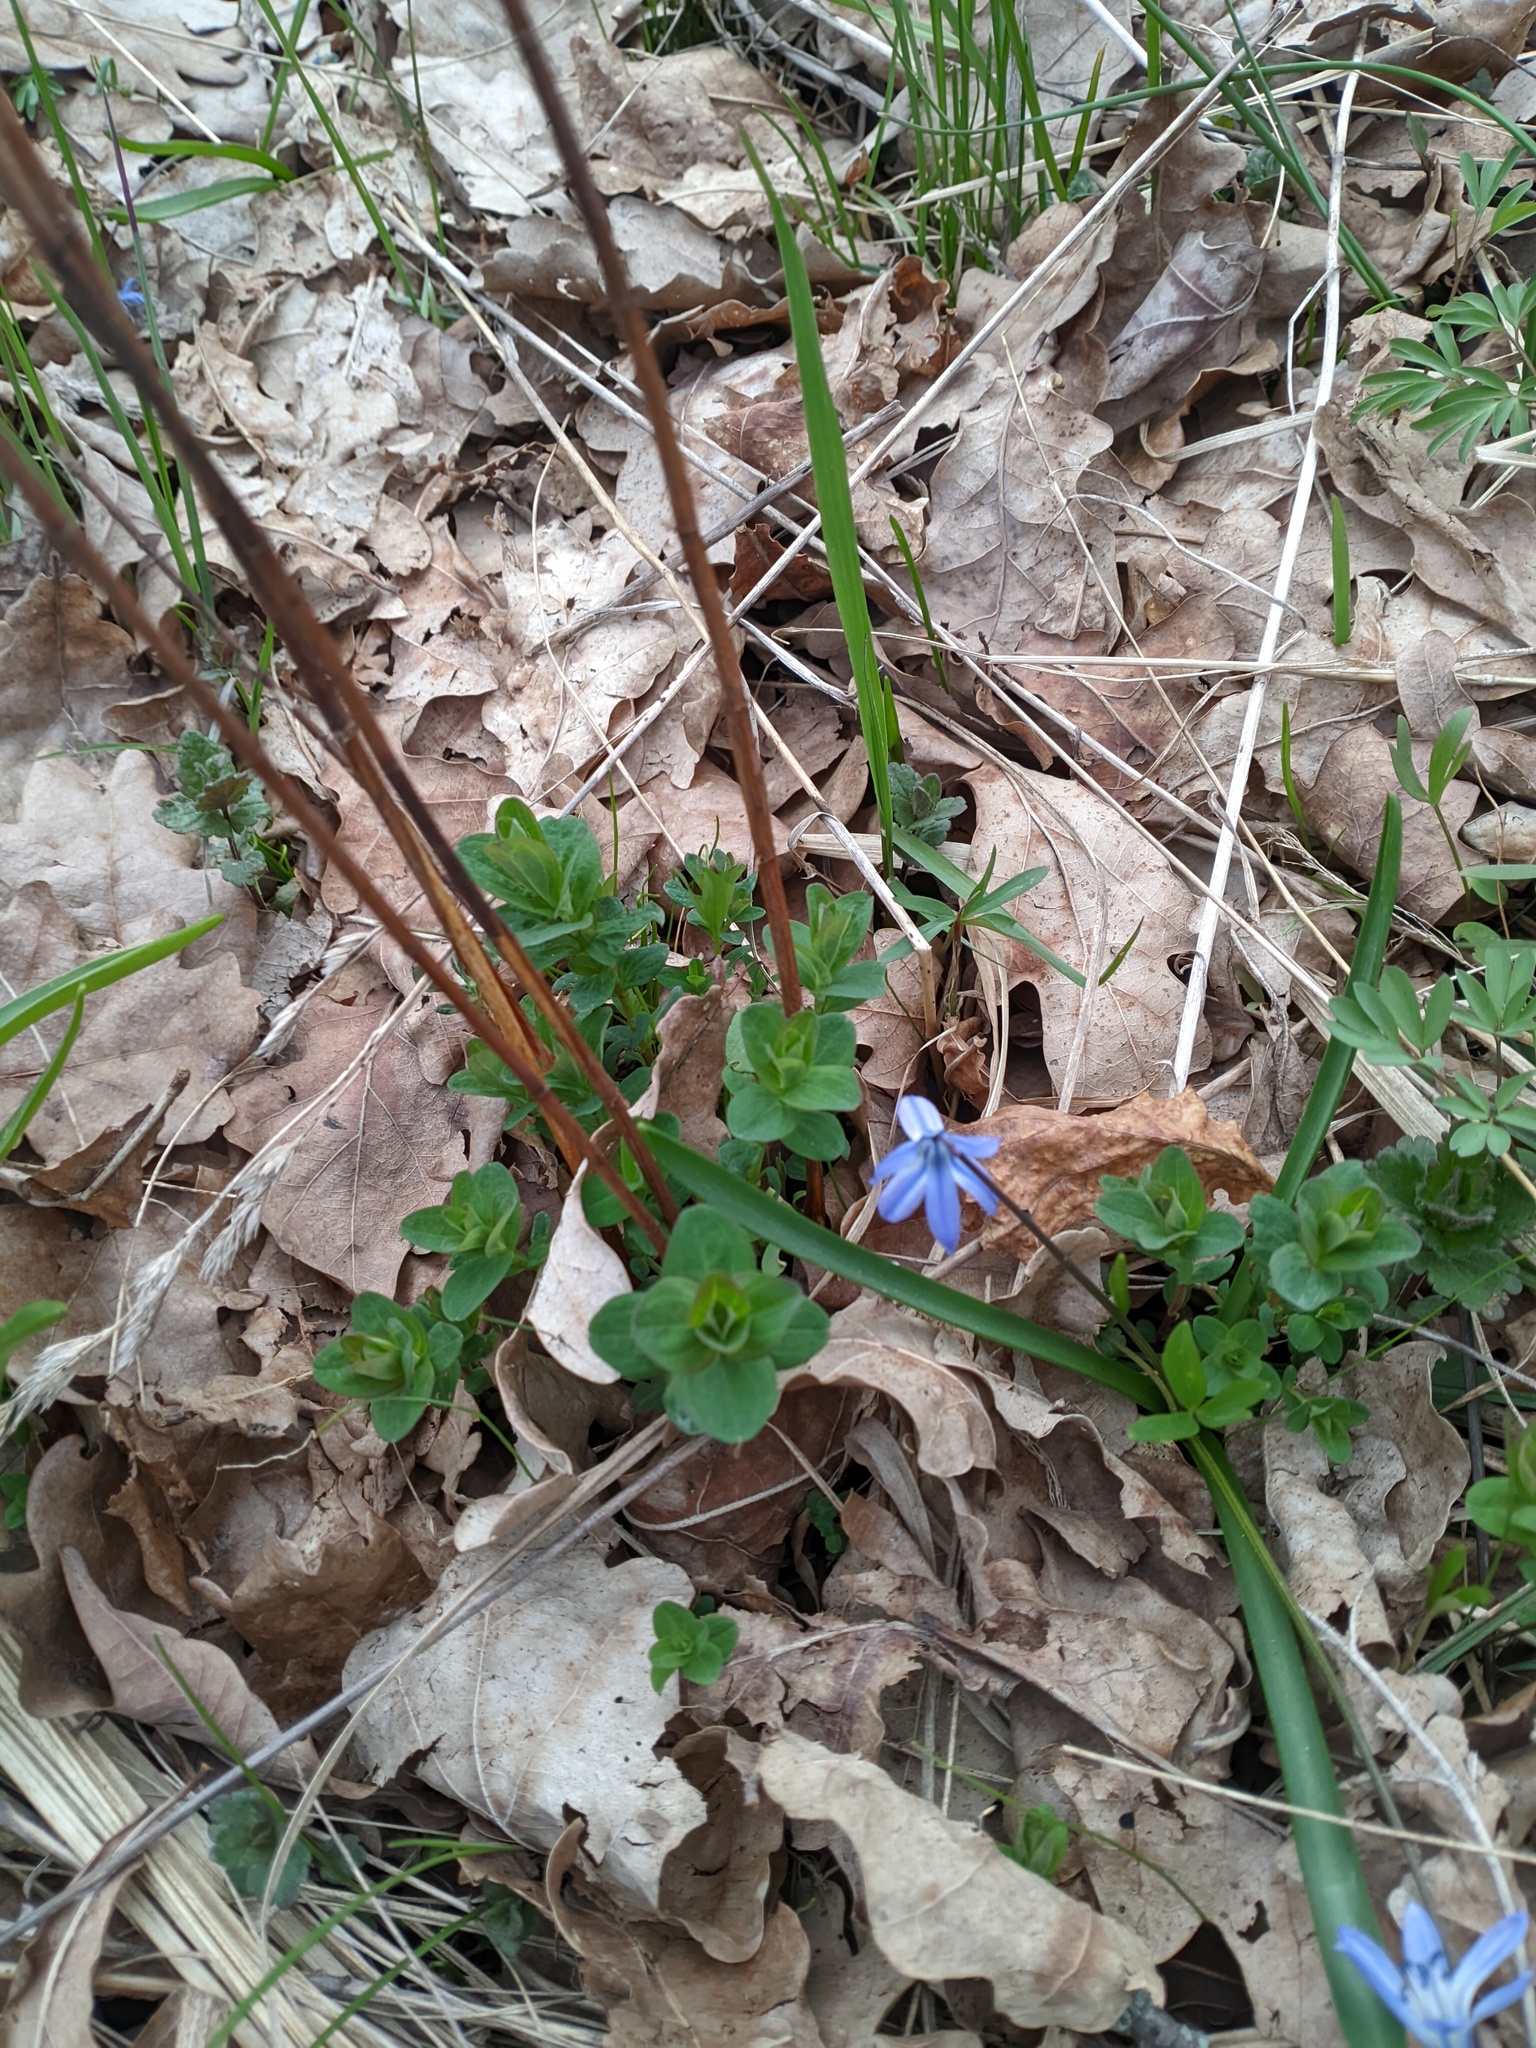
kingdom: Plantae
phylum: Tracheophyta
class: Magnoliopsida
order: Malpighiales
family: Hypericaceae
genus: Hypericum
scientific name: Hypericum perforatum
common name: Common st. johnswort
